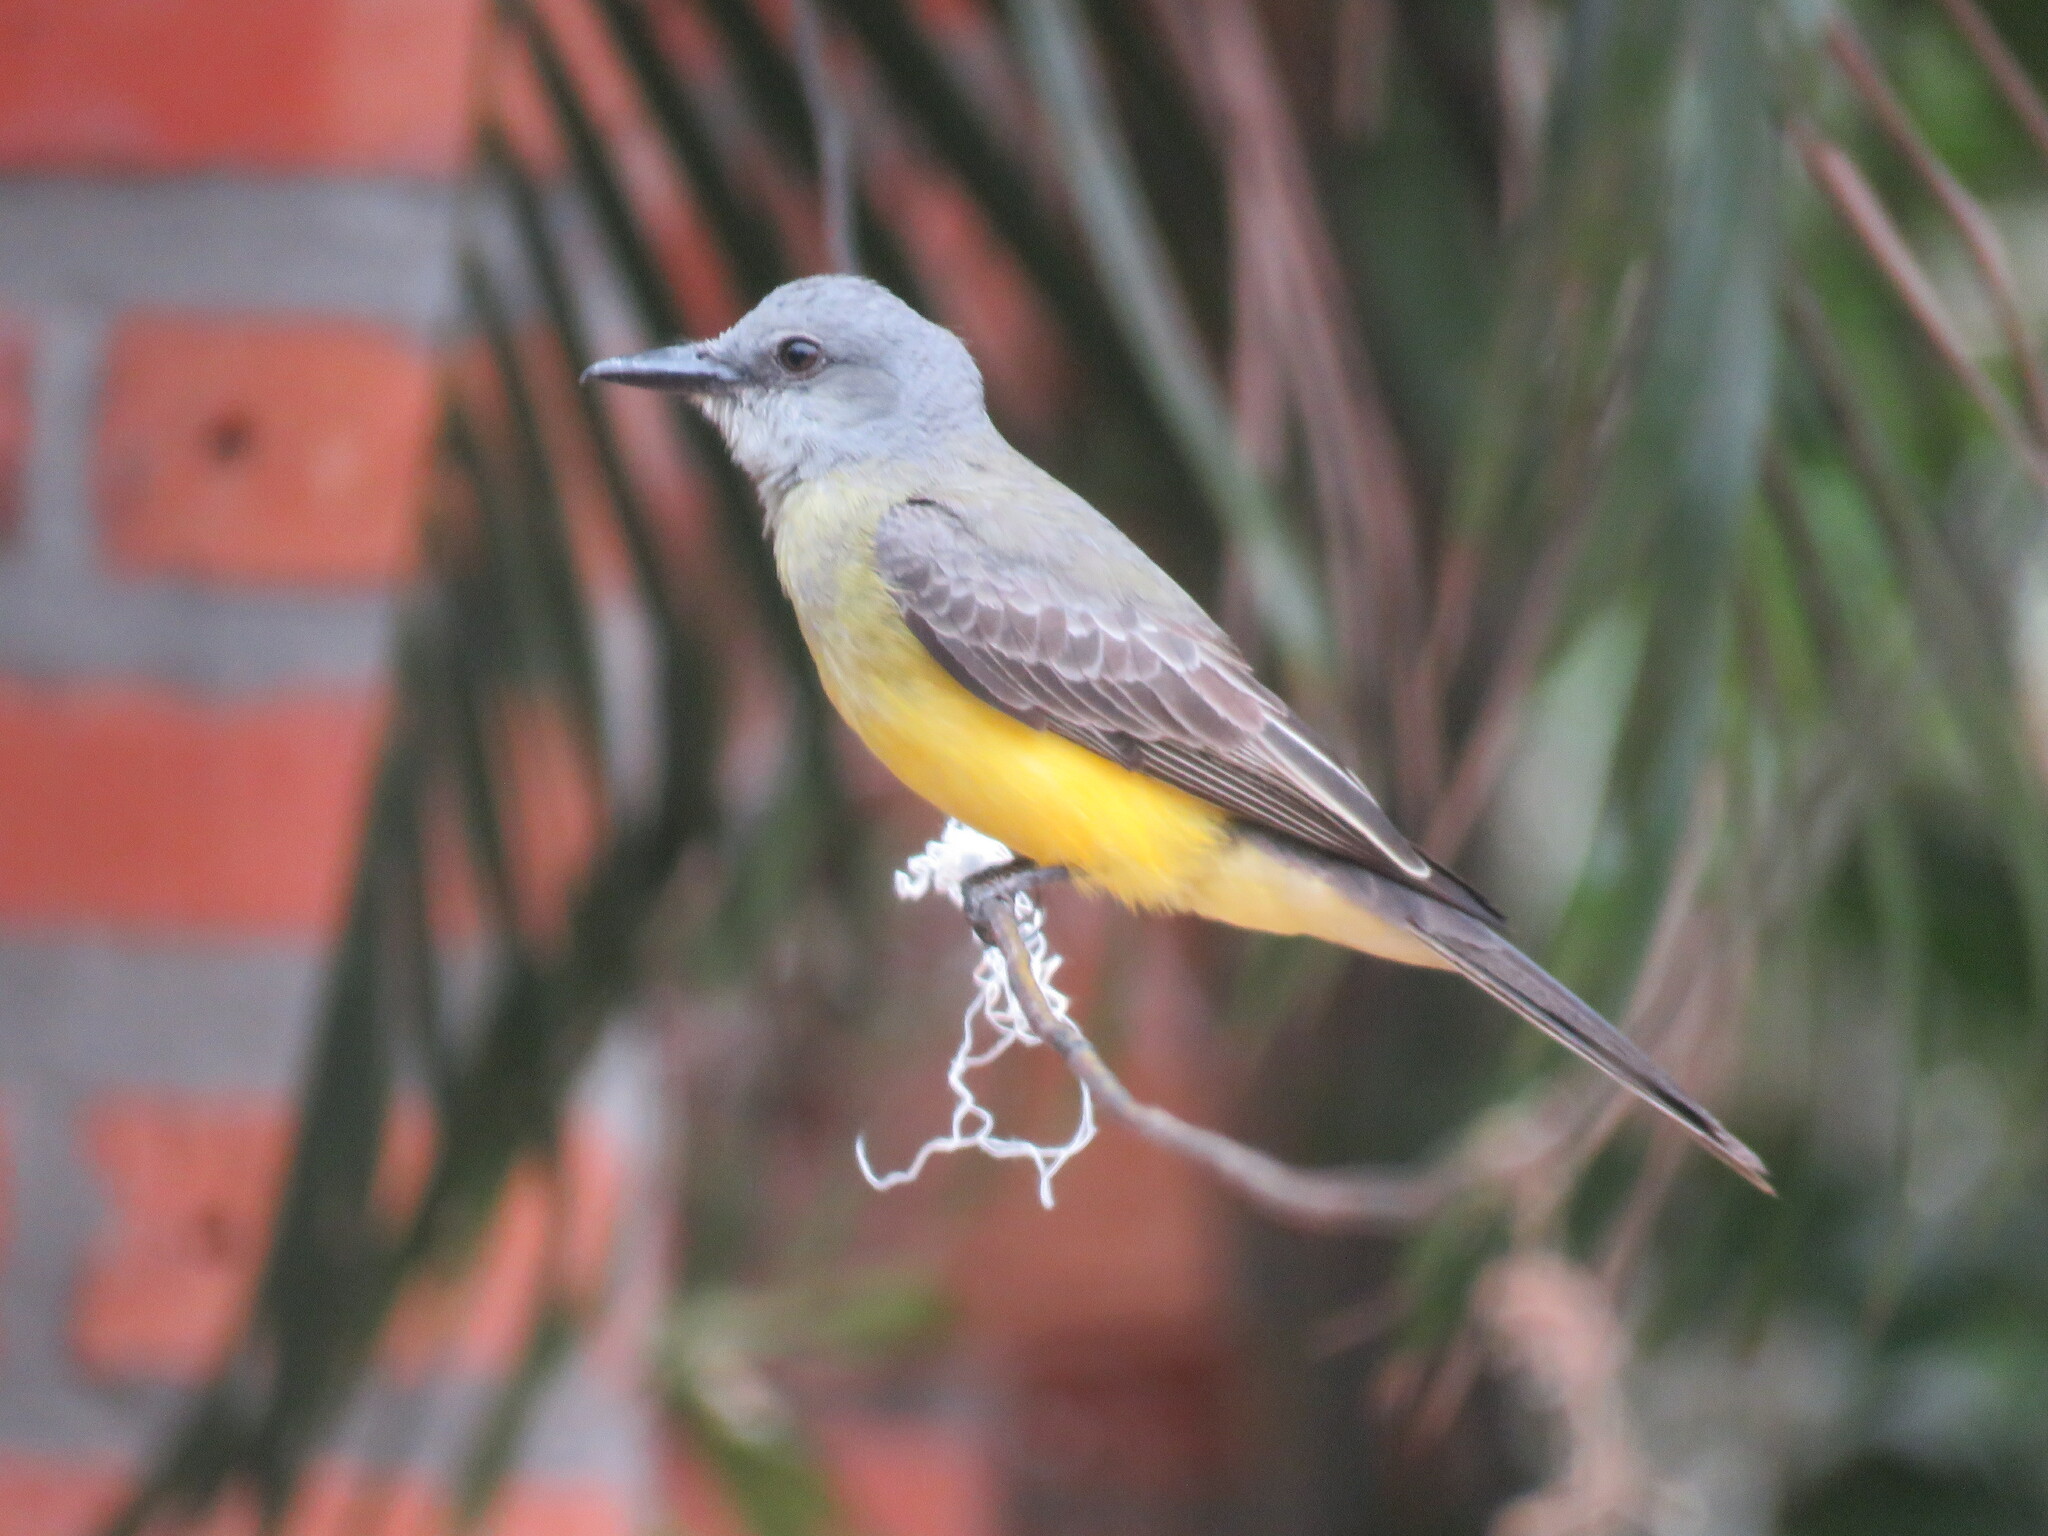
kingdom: Animalia
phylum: Chordata
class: Aves
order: Passeriformes
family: Tyrannidae
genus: Tyrannus
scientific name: Tyrannus melancholicus
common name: Tropical kingbird
